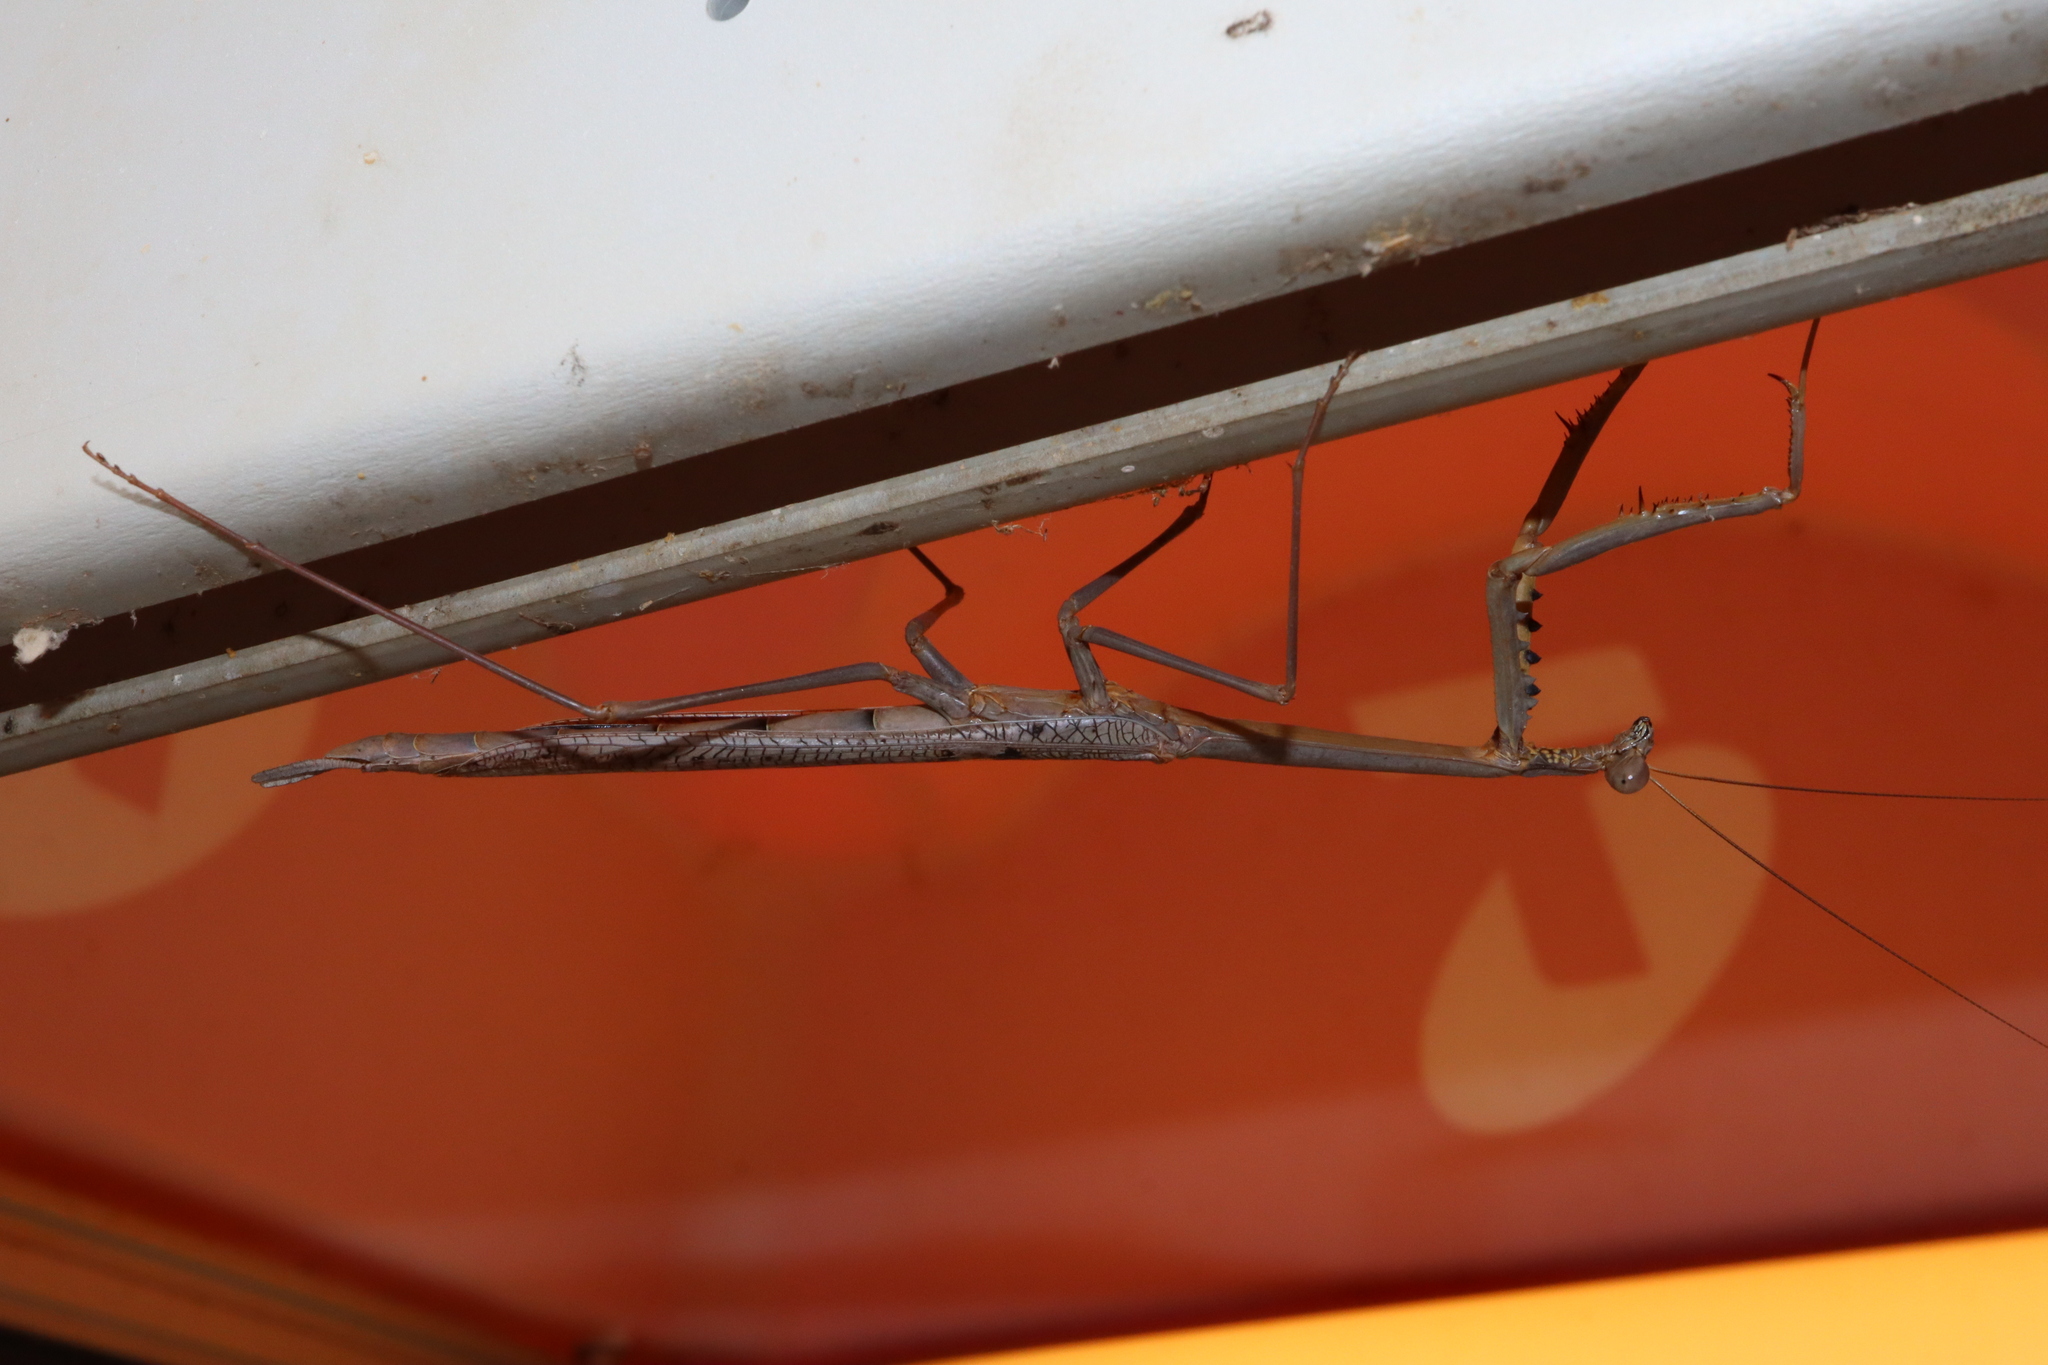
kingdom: Animalia
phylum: Arthropoda
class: Insecta
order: Mantodea
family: Mantidae
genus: Archimantis
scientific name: Archimantis quinquelobata
